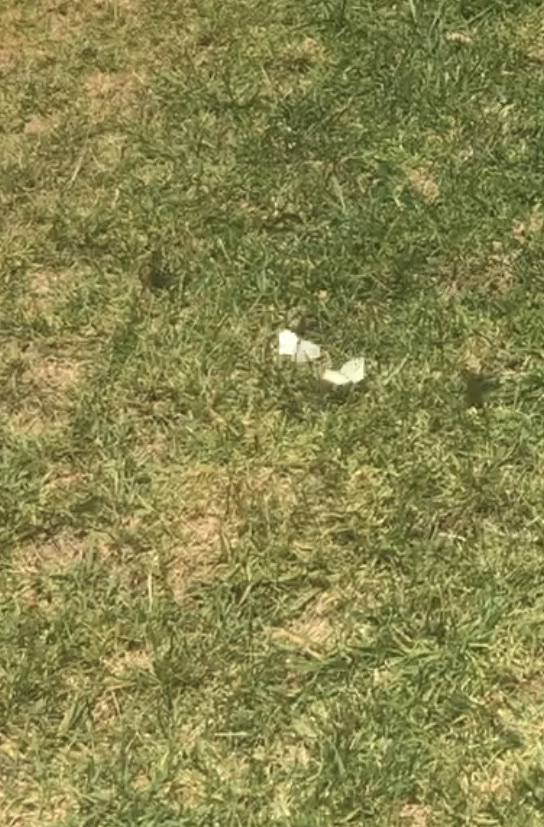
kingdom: Animalia
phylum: Arthropoda
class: Insecta
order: Lepidoptera
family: Pieridae
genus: Pieris
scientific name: Pieris rapae
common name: Small white
